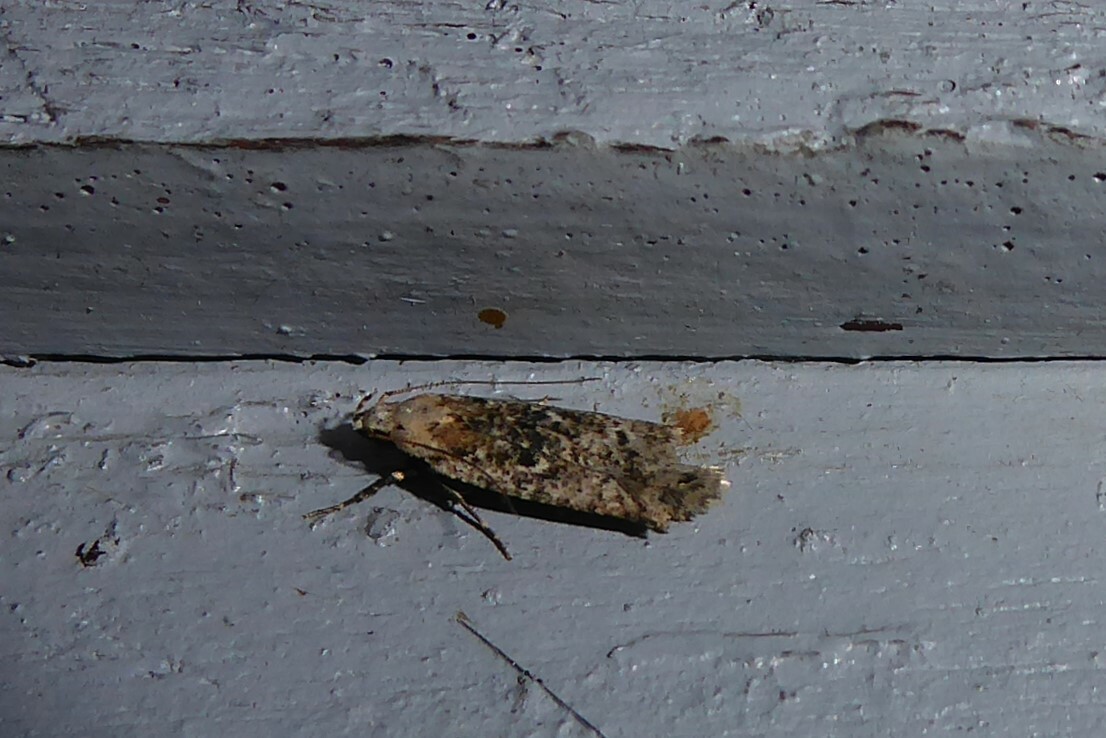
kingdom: Animalia
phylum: Arthropoda
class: Insecta
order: Lepidoptera
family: Gelechiidae
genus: Anisoplaca
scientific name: Anisoplaca achyrota
